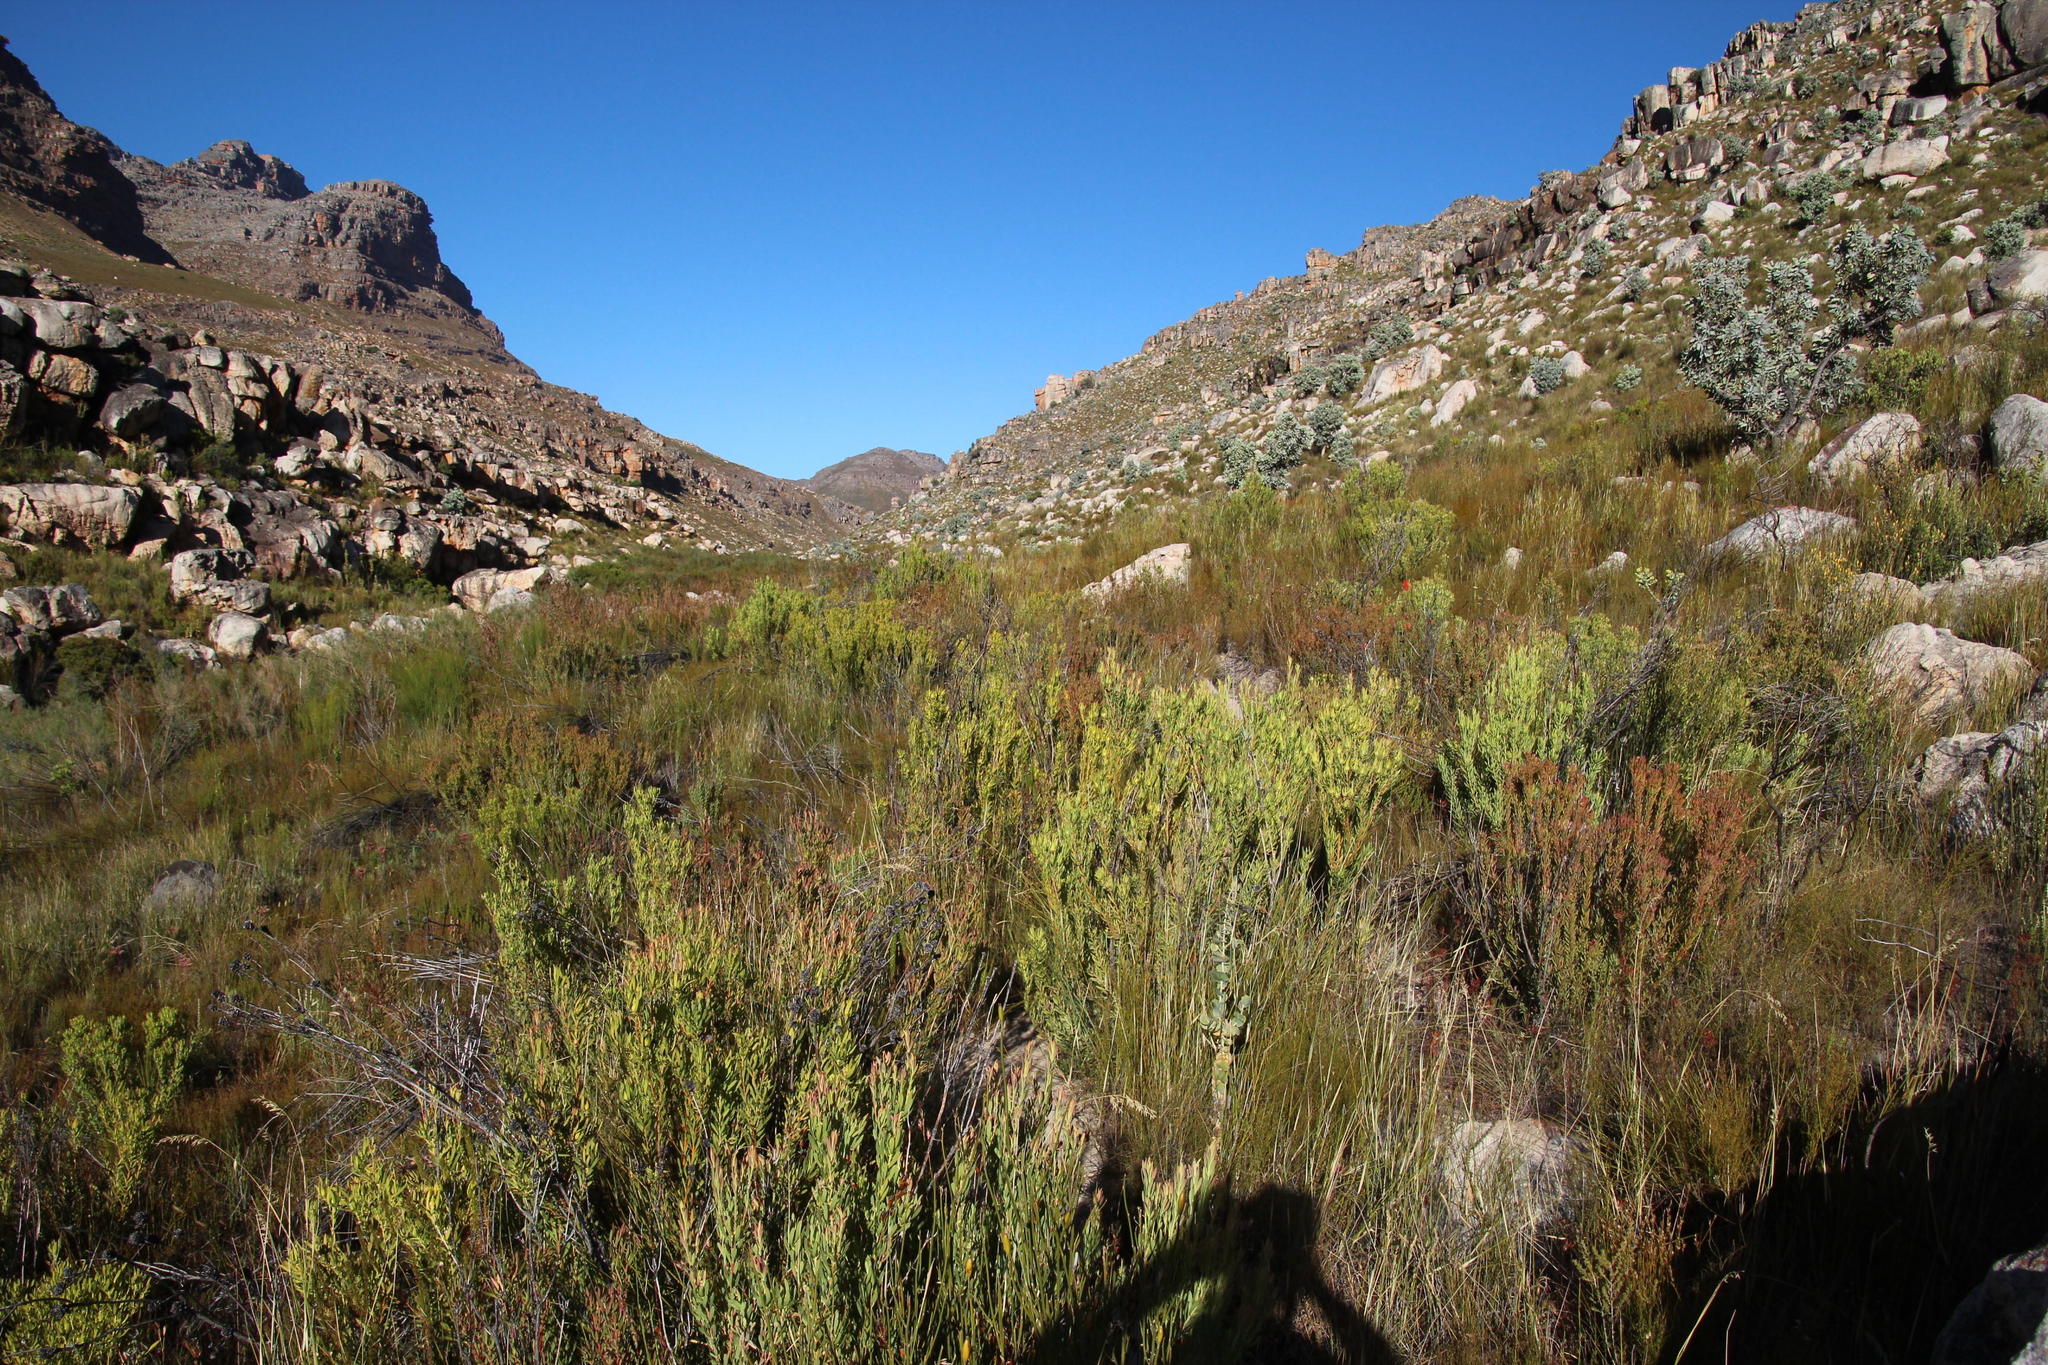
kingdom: Plantae
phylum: Tracheophyta
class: Magnoliopsida
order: Proteales
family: Proteaceae
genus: Leucadendron
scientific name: Leucadendron salignum
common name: Common sunshine conebush
